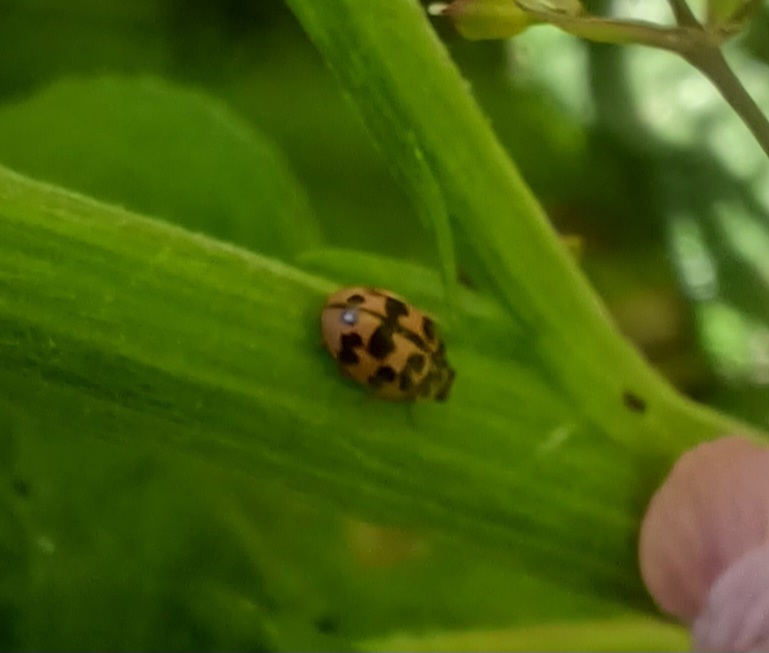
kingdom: Animalia
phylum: Arthropoda
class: Insecta
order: Coleoptera
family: Coccinellidae
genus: Oenopia
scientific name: Oenopia conglobata
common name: Ladybird beetle
